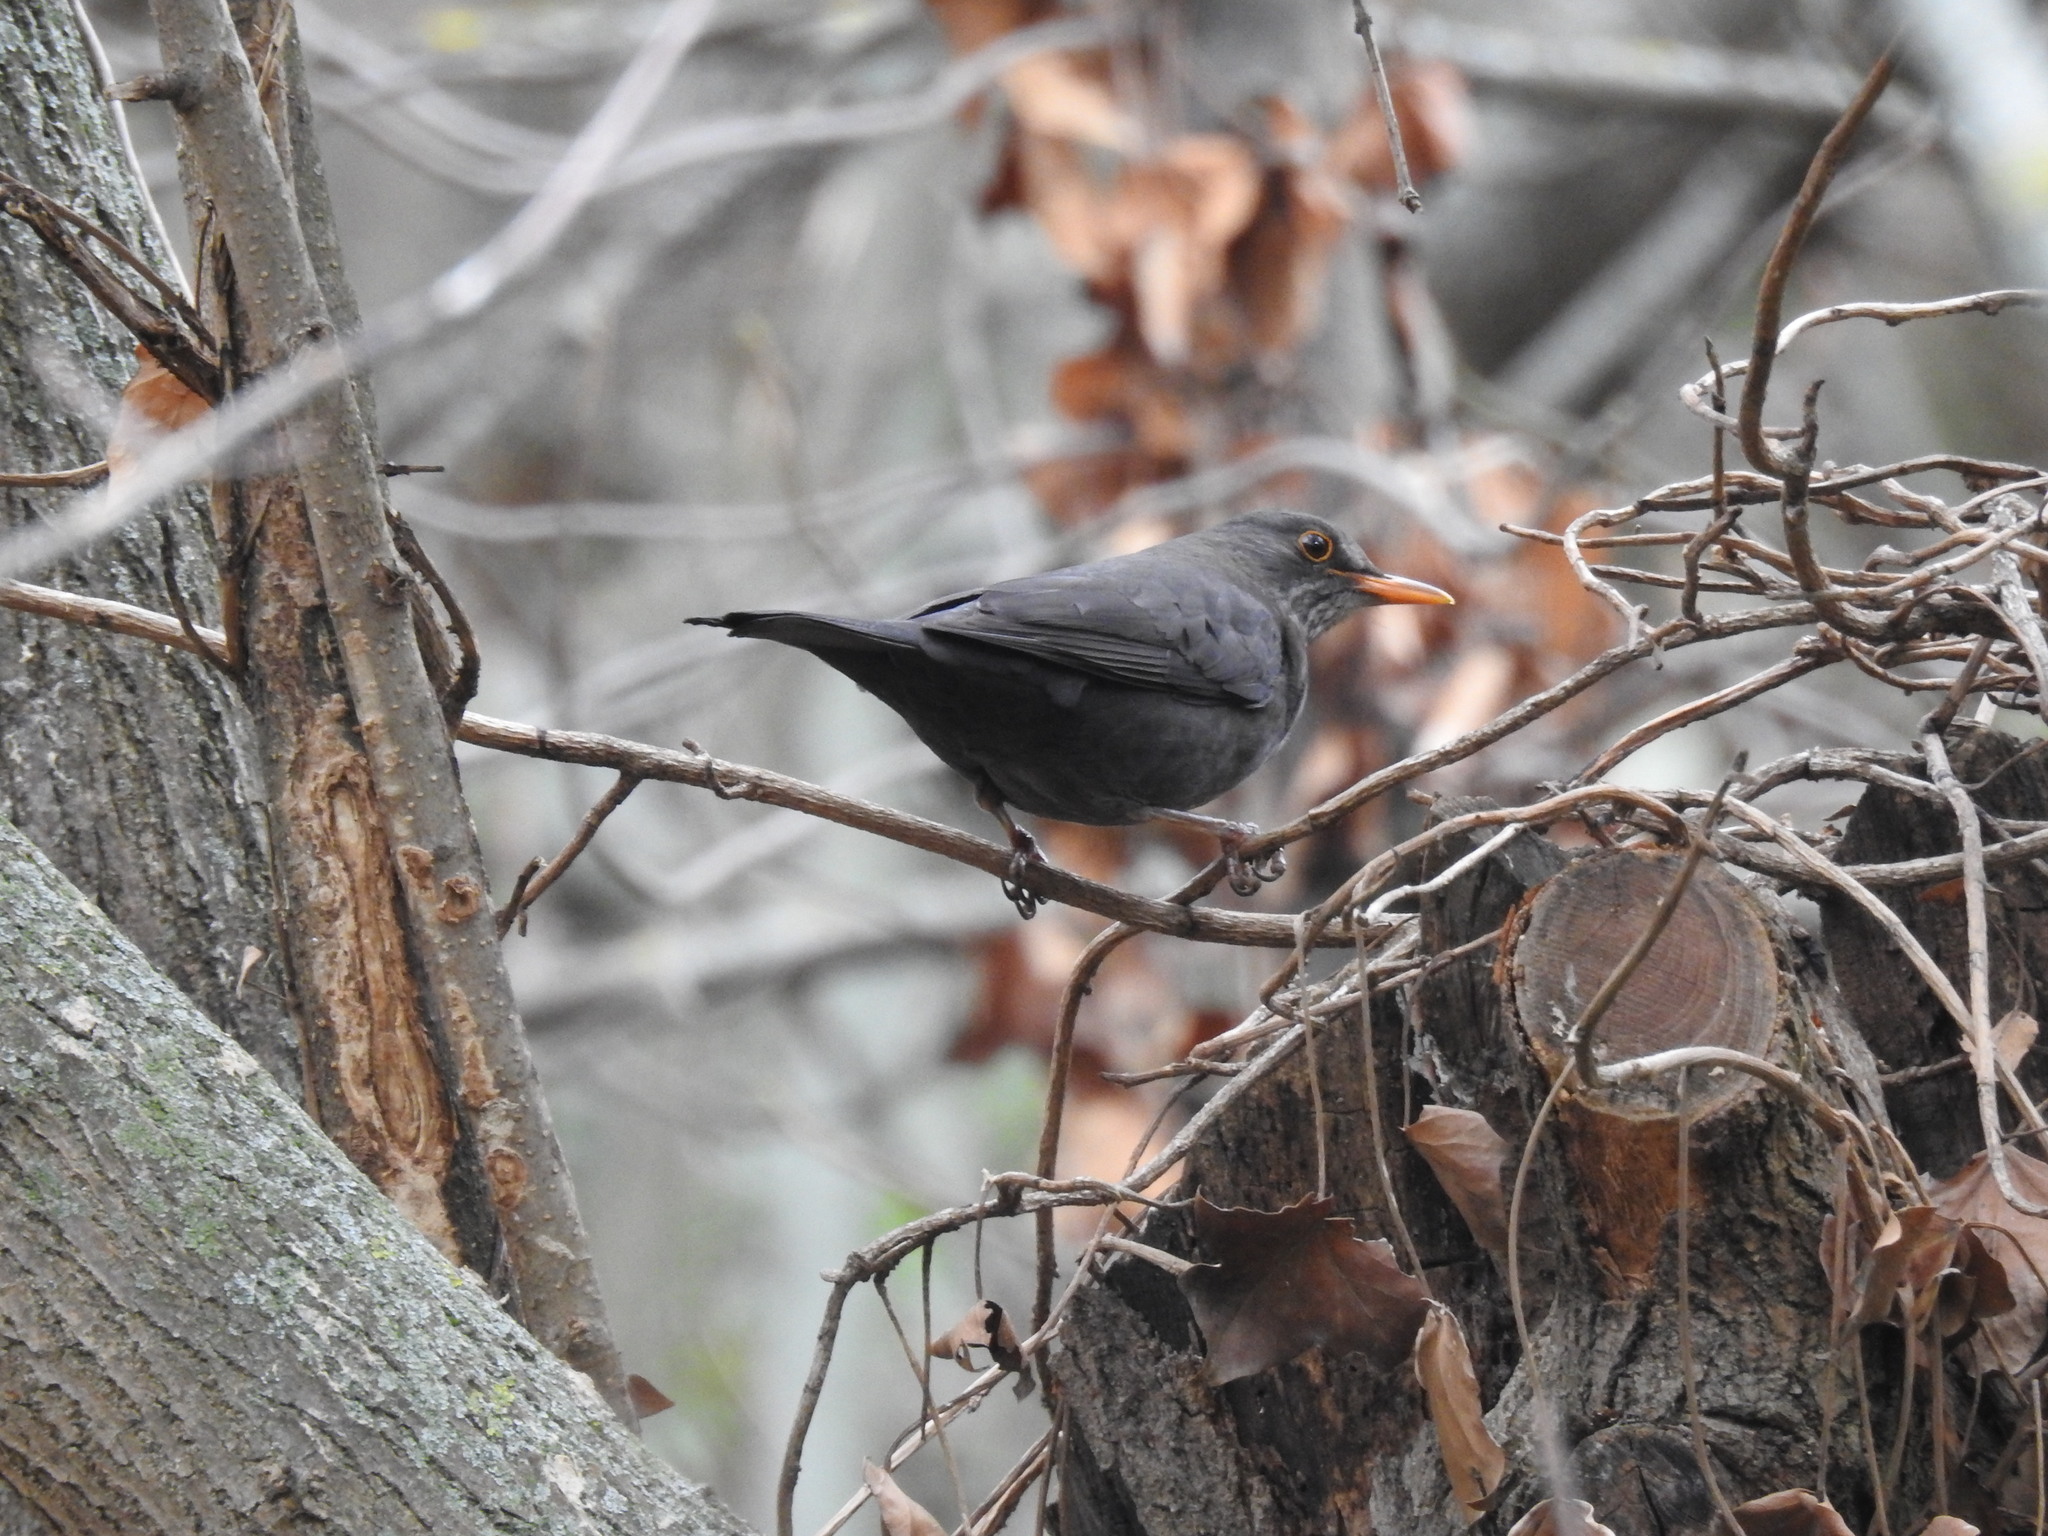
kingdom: Animalia
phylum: Chordata
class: Aves
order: Passeriformes
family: Turdidae
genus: Turdus
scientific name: Turdus merula
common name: Common blackbird
